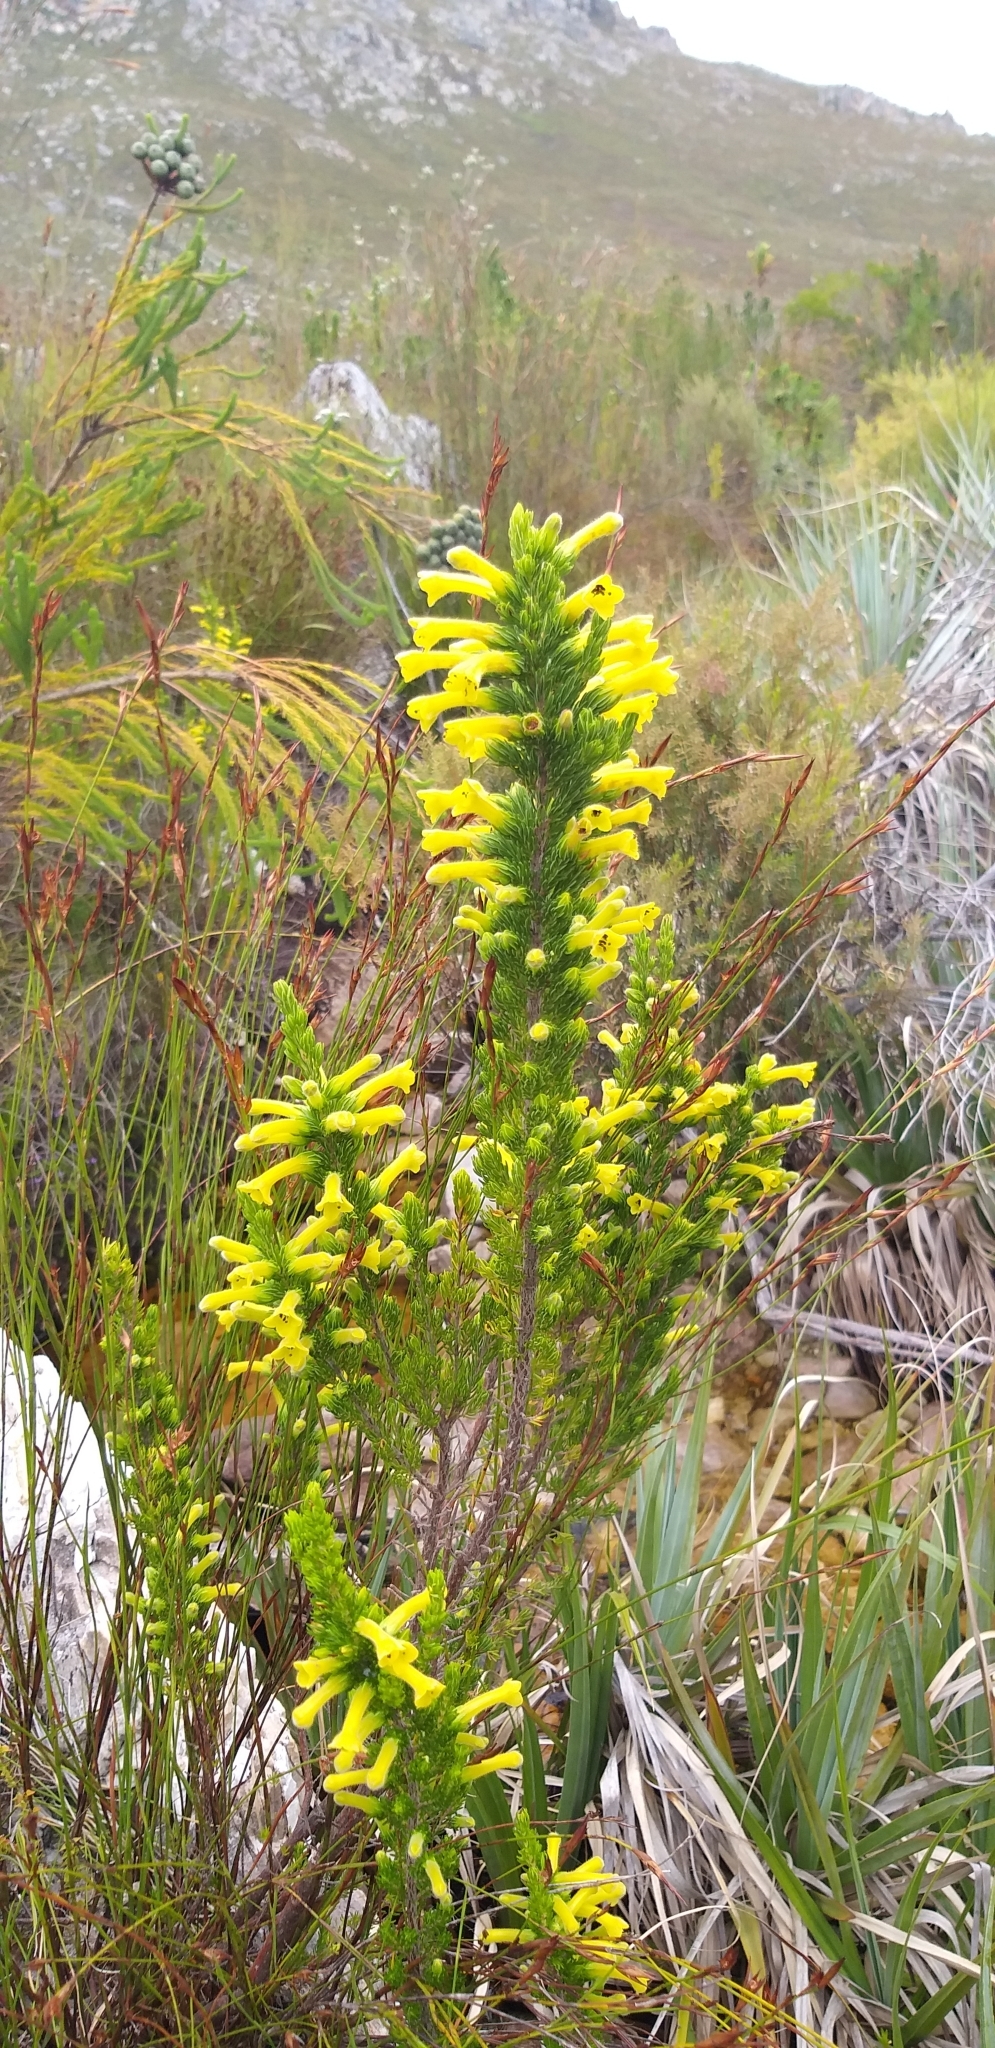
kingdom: Plantae
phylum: Tracheophyta
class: Magnoliopsida
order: Ericales
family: Ericaceae
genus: Erica
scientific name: Erica macowanii
